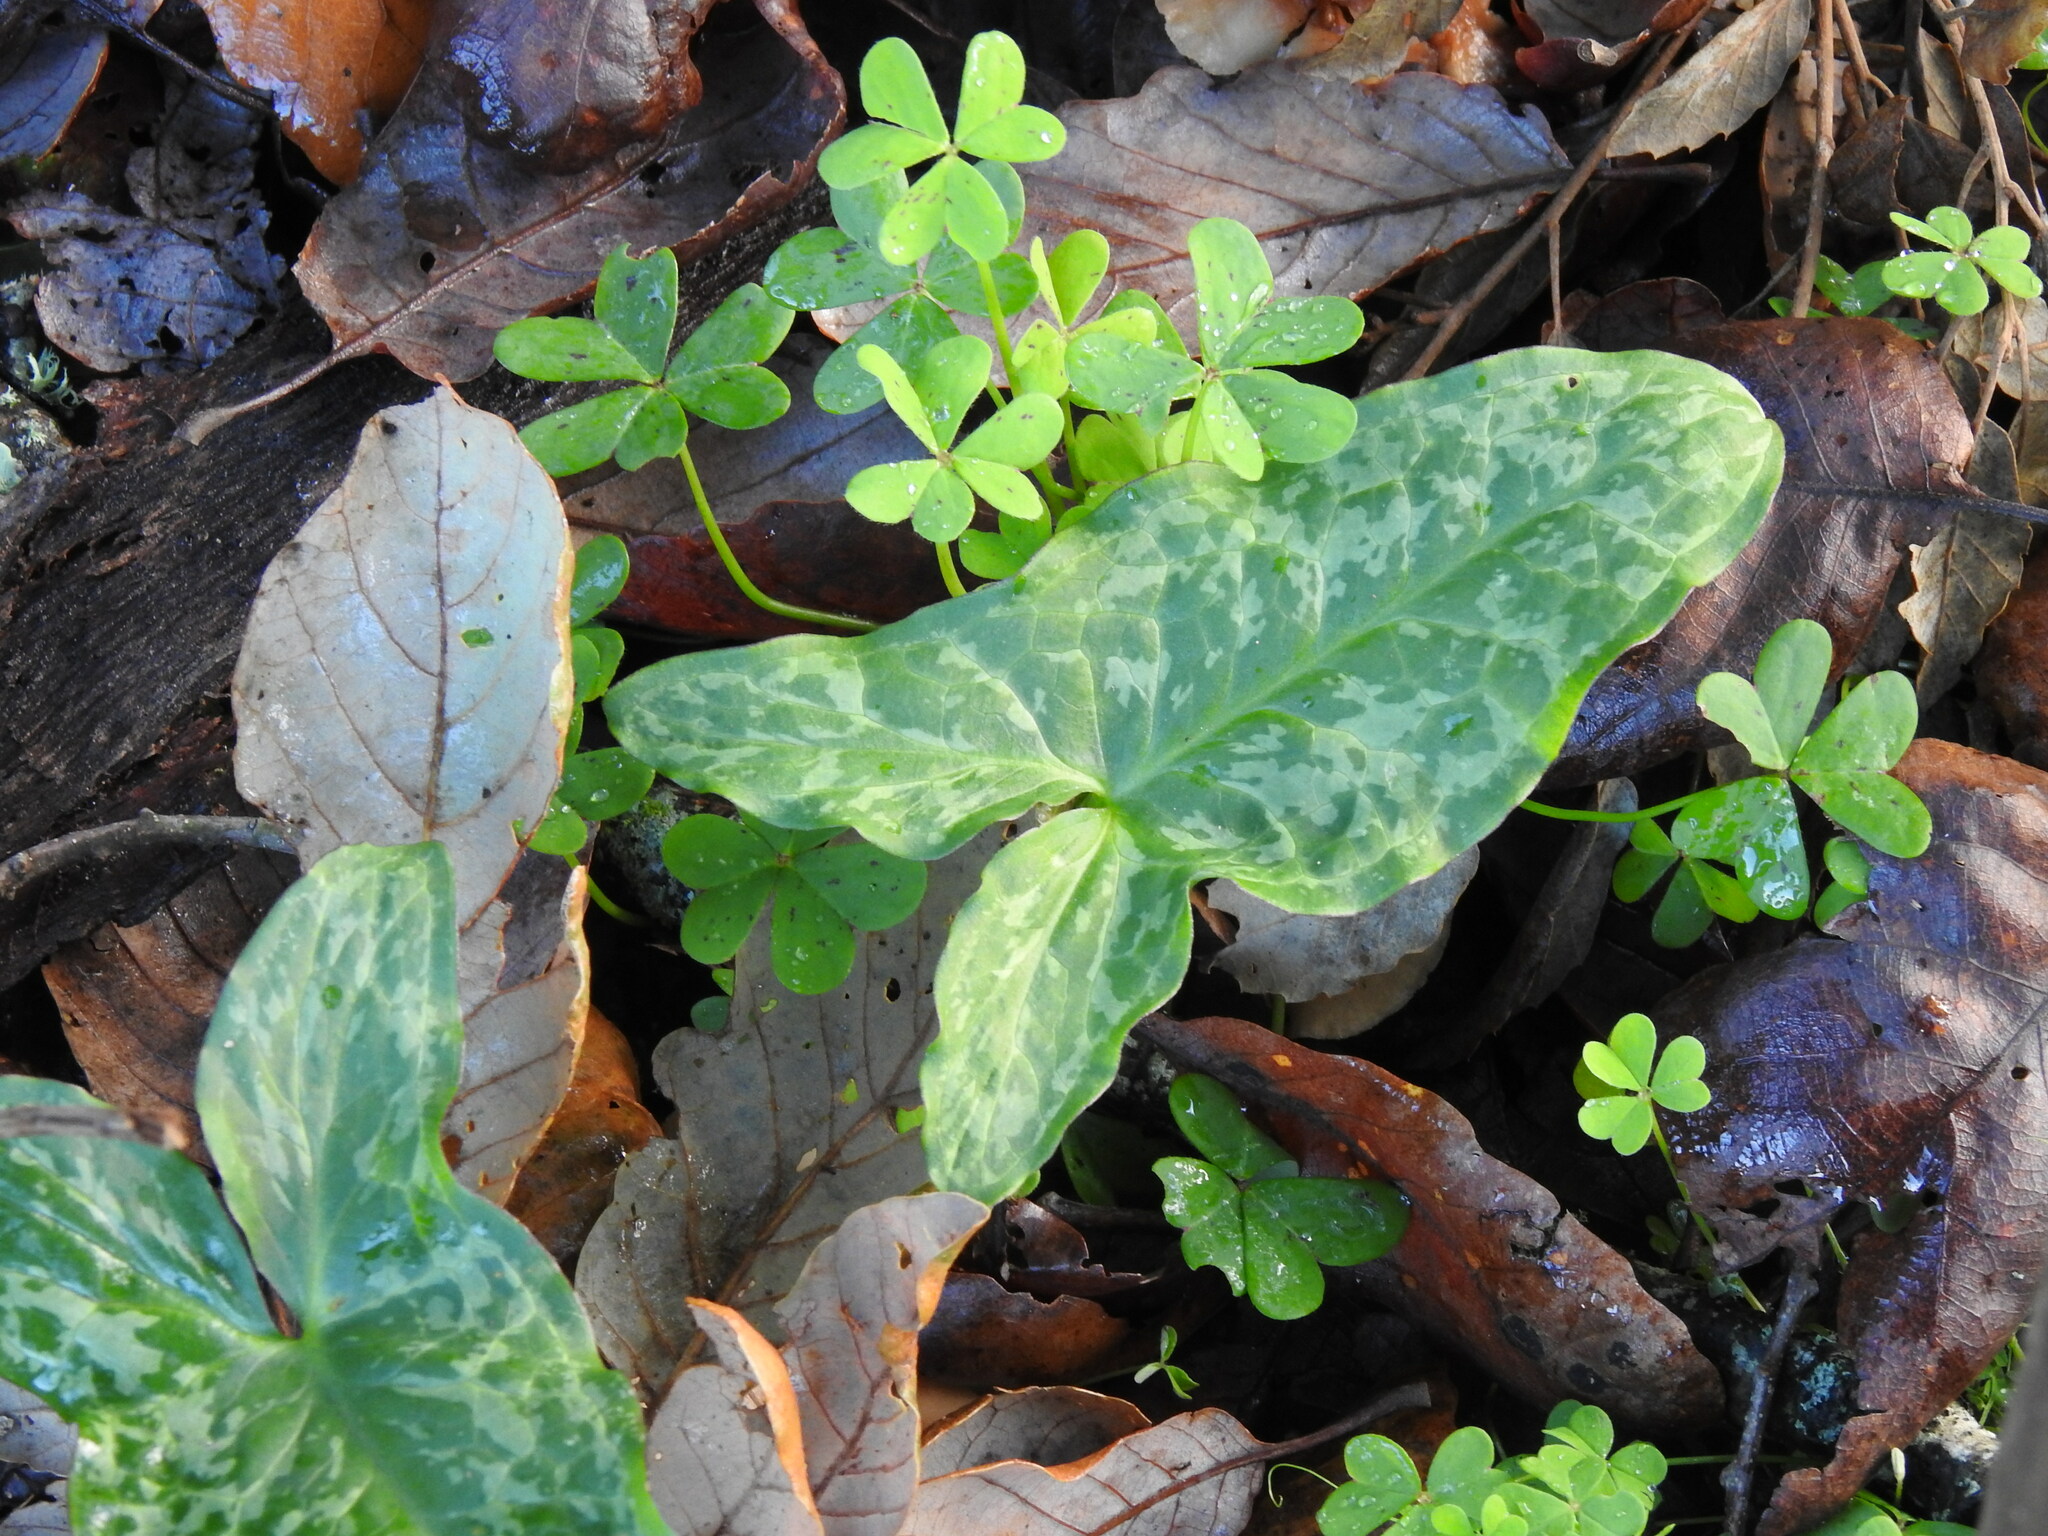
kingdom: Plantae
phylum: Tracheophyta
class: Liliopsida
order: Alismatales
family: Araceae
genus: Arum
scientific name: Arum italicum
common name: Italian lords-and-ladies
